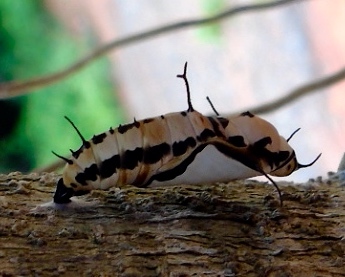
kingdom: Animalia
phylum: Arthropoda
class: Insecta
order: Lepidoptera
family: Nymphalidae
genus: Marpesia
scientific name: Marpesia petreus
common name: Red dagger wing
